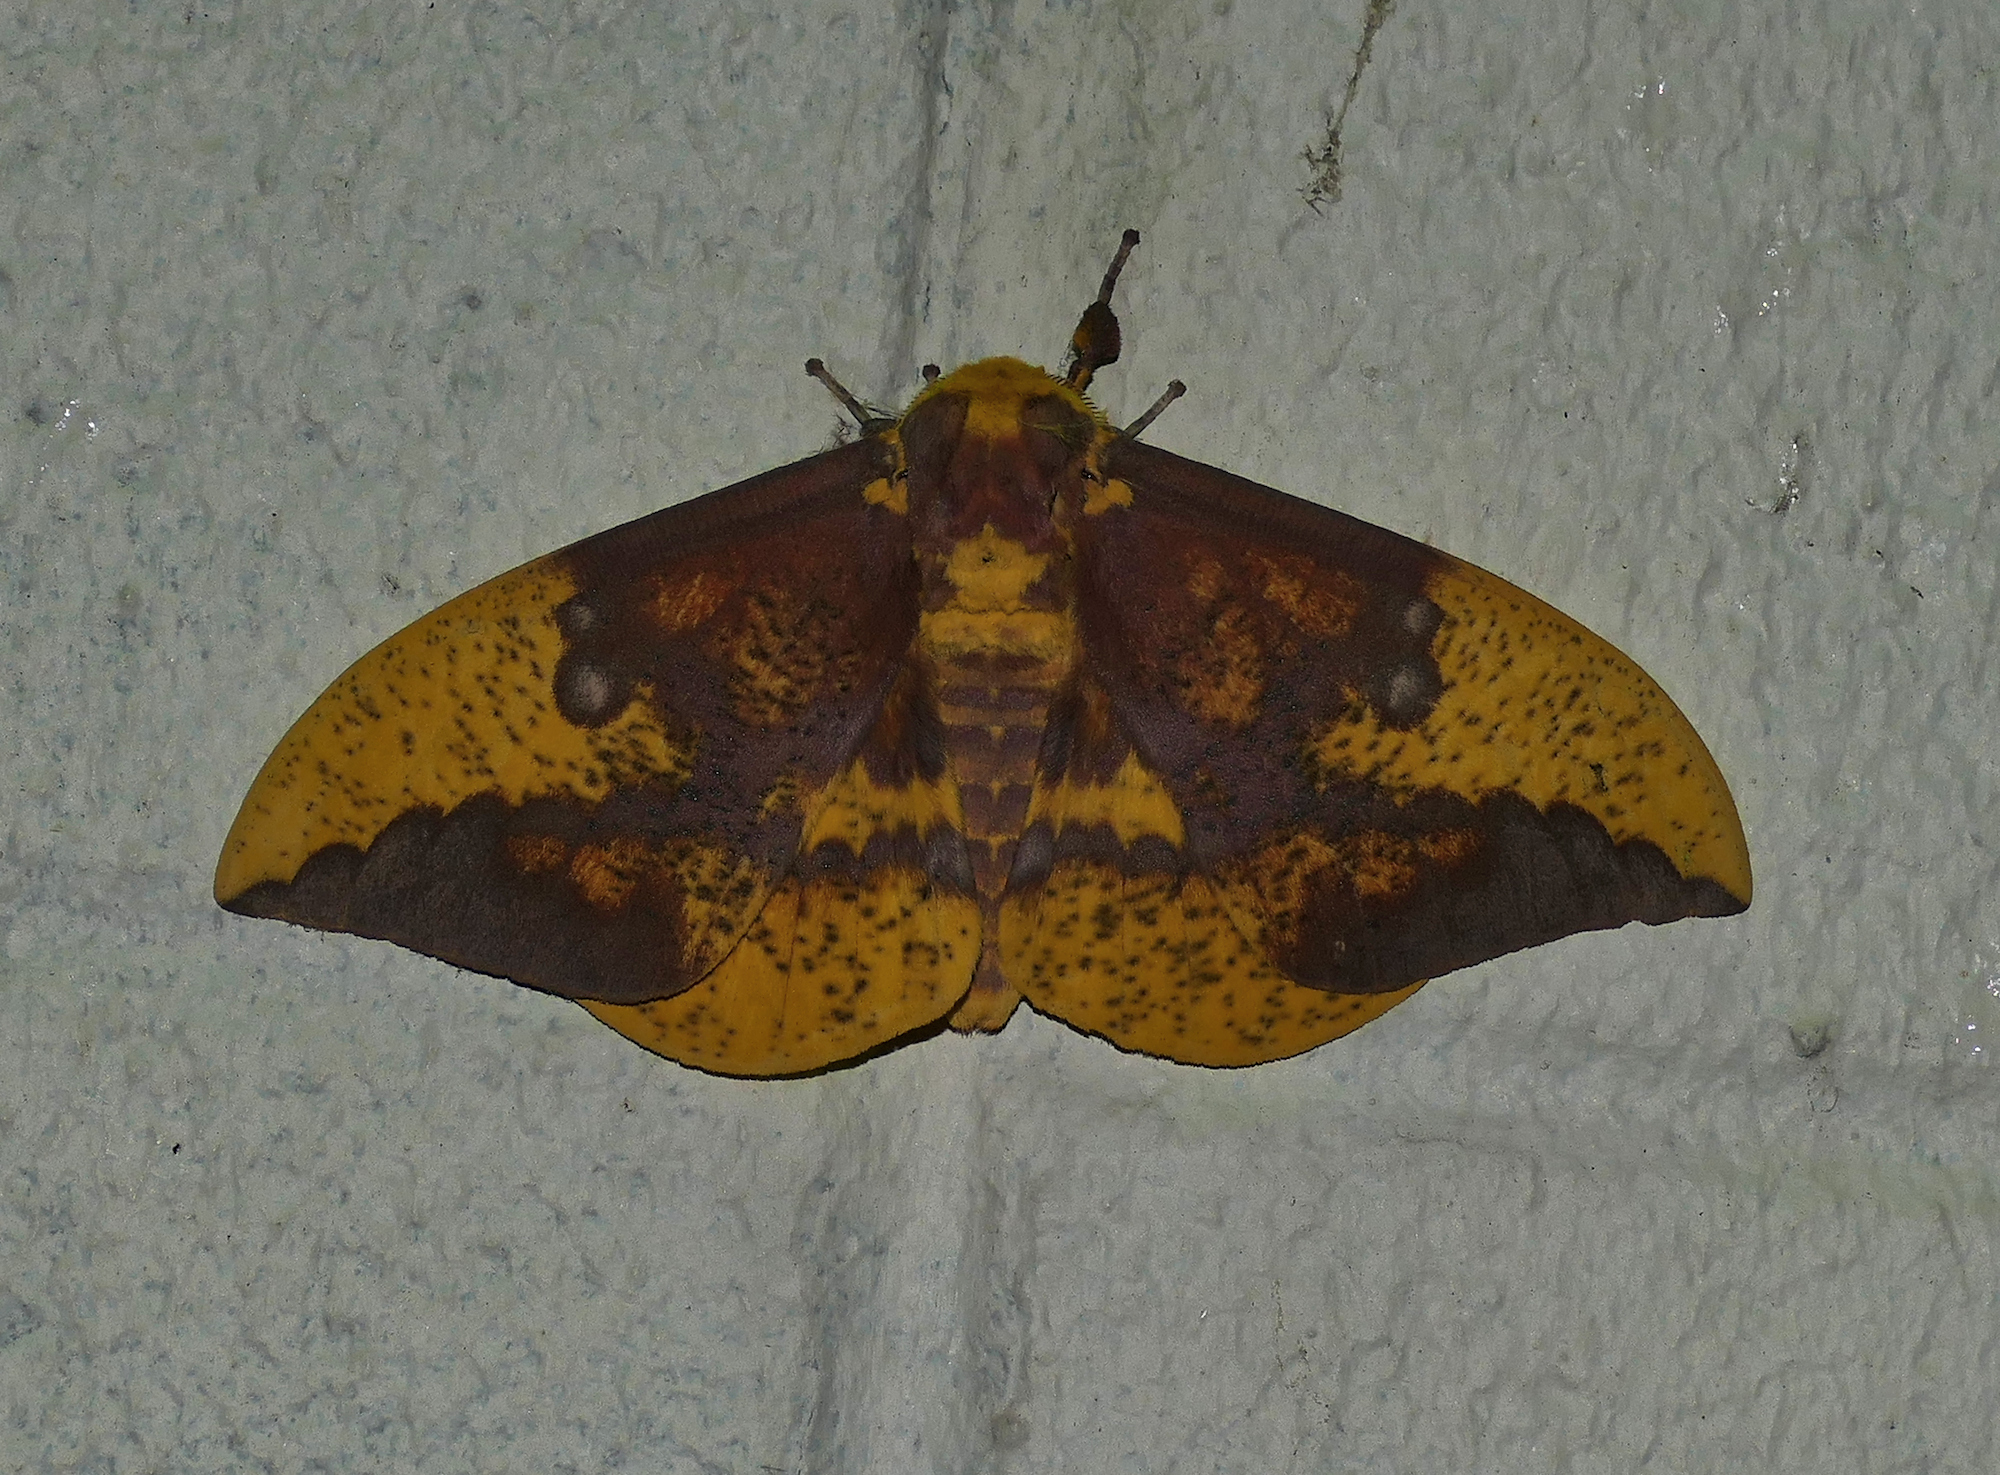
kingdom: Animalia
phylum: Arthropoda
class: Insecta
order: Lepidoptera
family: Saturniidae
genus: Eacles
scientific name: Eacles imperialis
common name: Imperial moth
